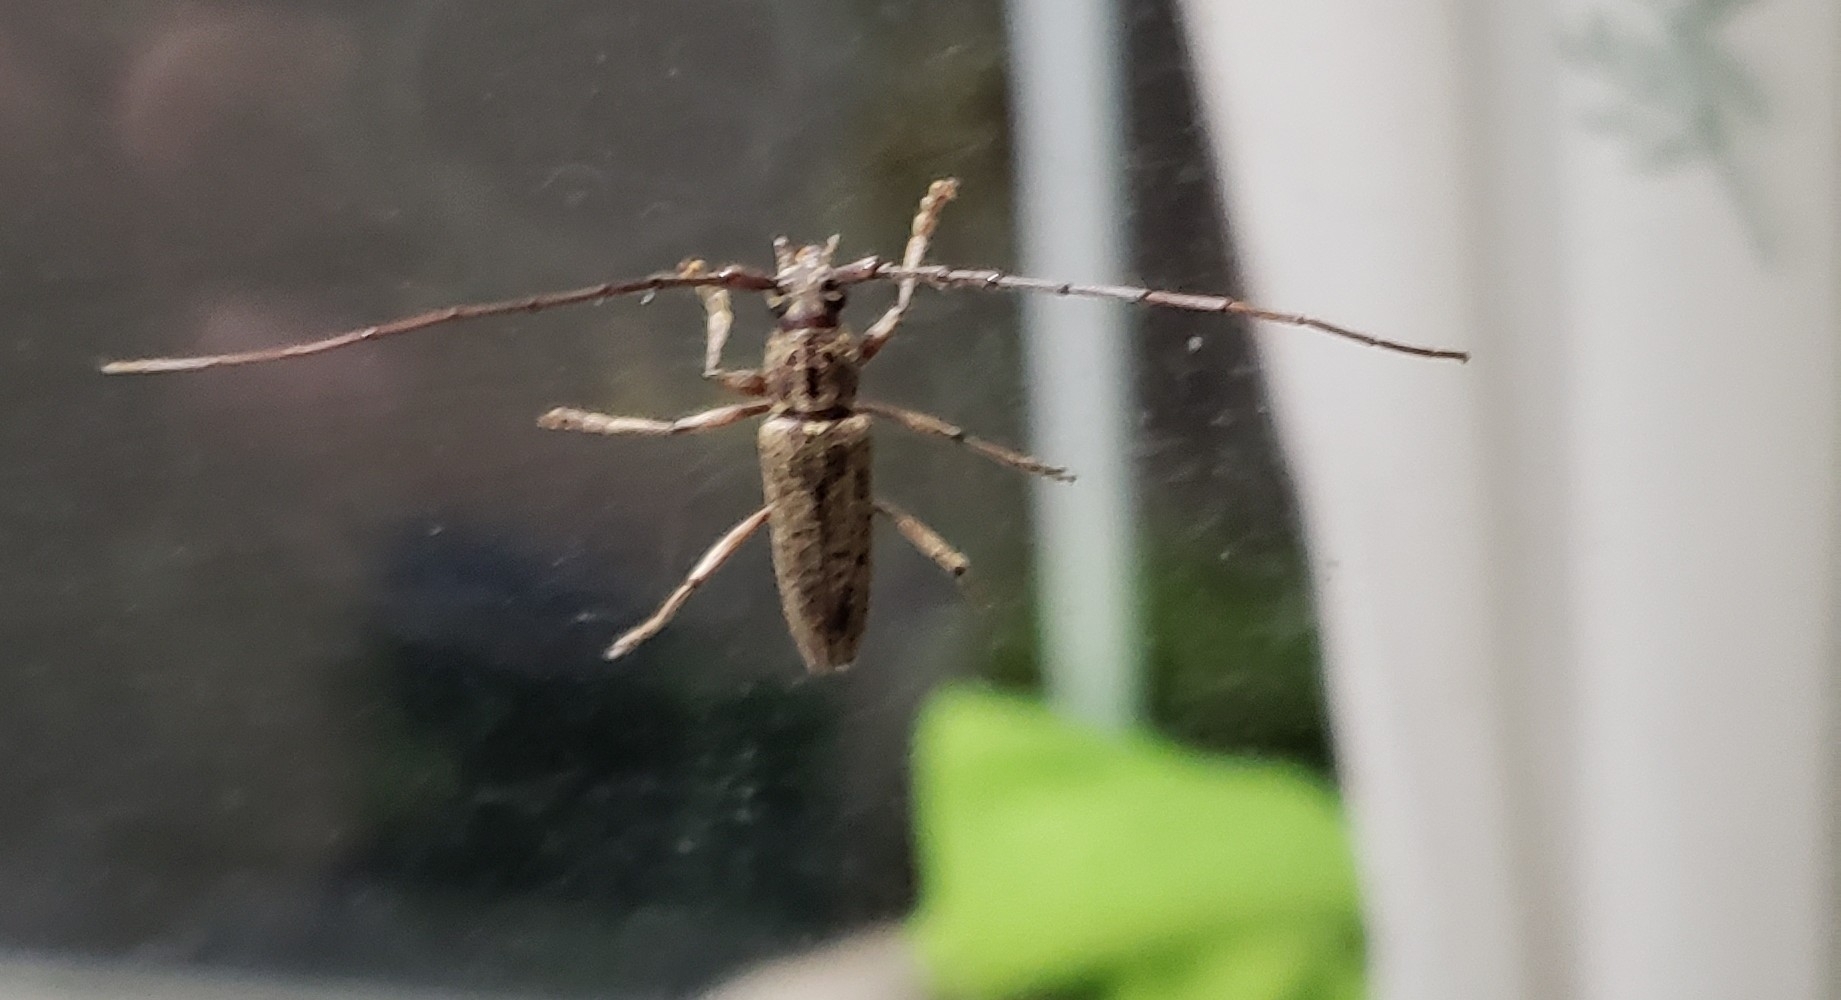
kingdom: Animalia
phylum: Arthropoda
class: Insecta
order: Coleoptera
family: Cerambycidae
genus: Elaphidion
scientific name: Elaphidion mucronatum
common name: Spined oak borer
